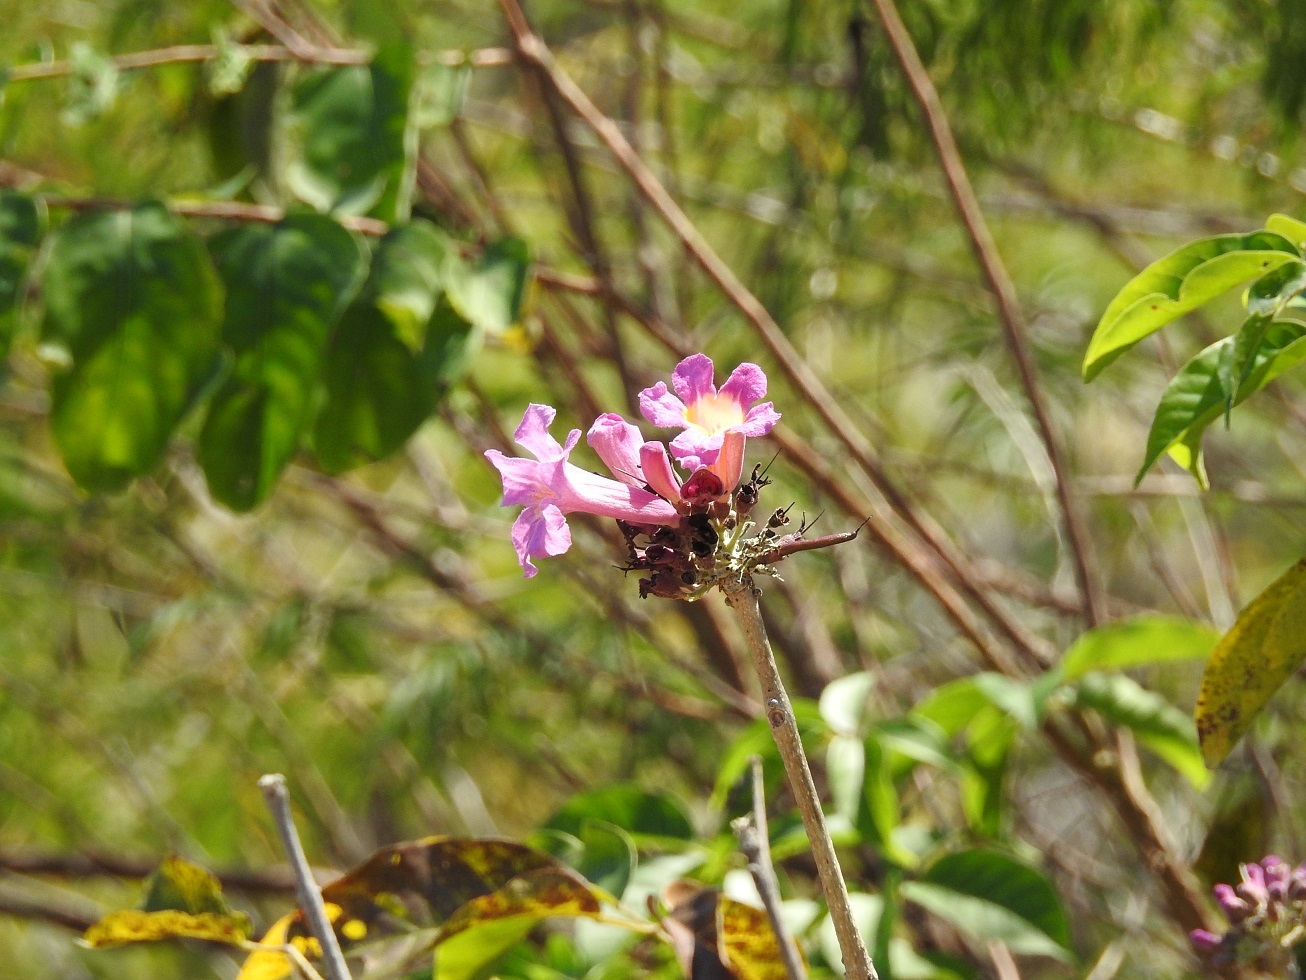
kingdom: Plantae
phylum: Tracheophyta
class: Magnoliopsida
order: Lamiales
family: Bignoniaceae
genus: Tabebuia
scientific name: Tabebuia rosea
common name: Pink poui
